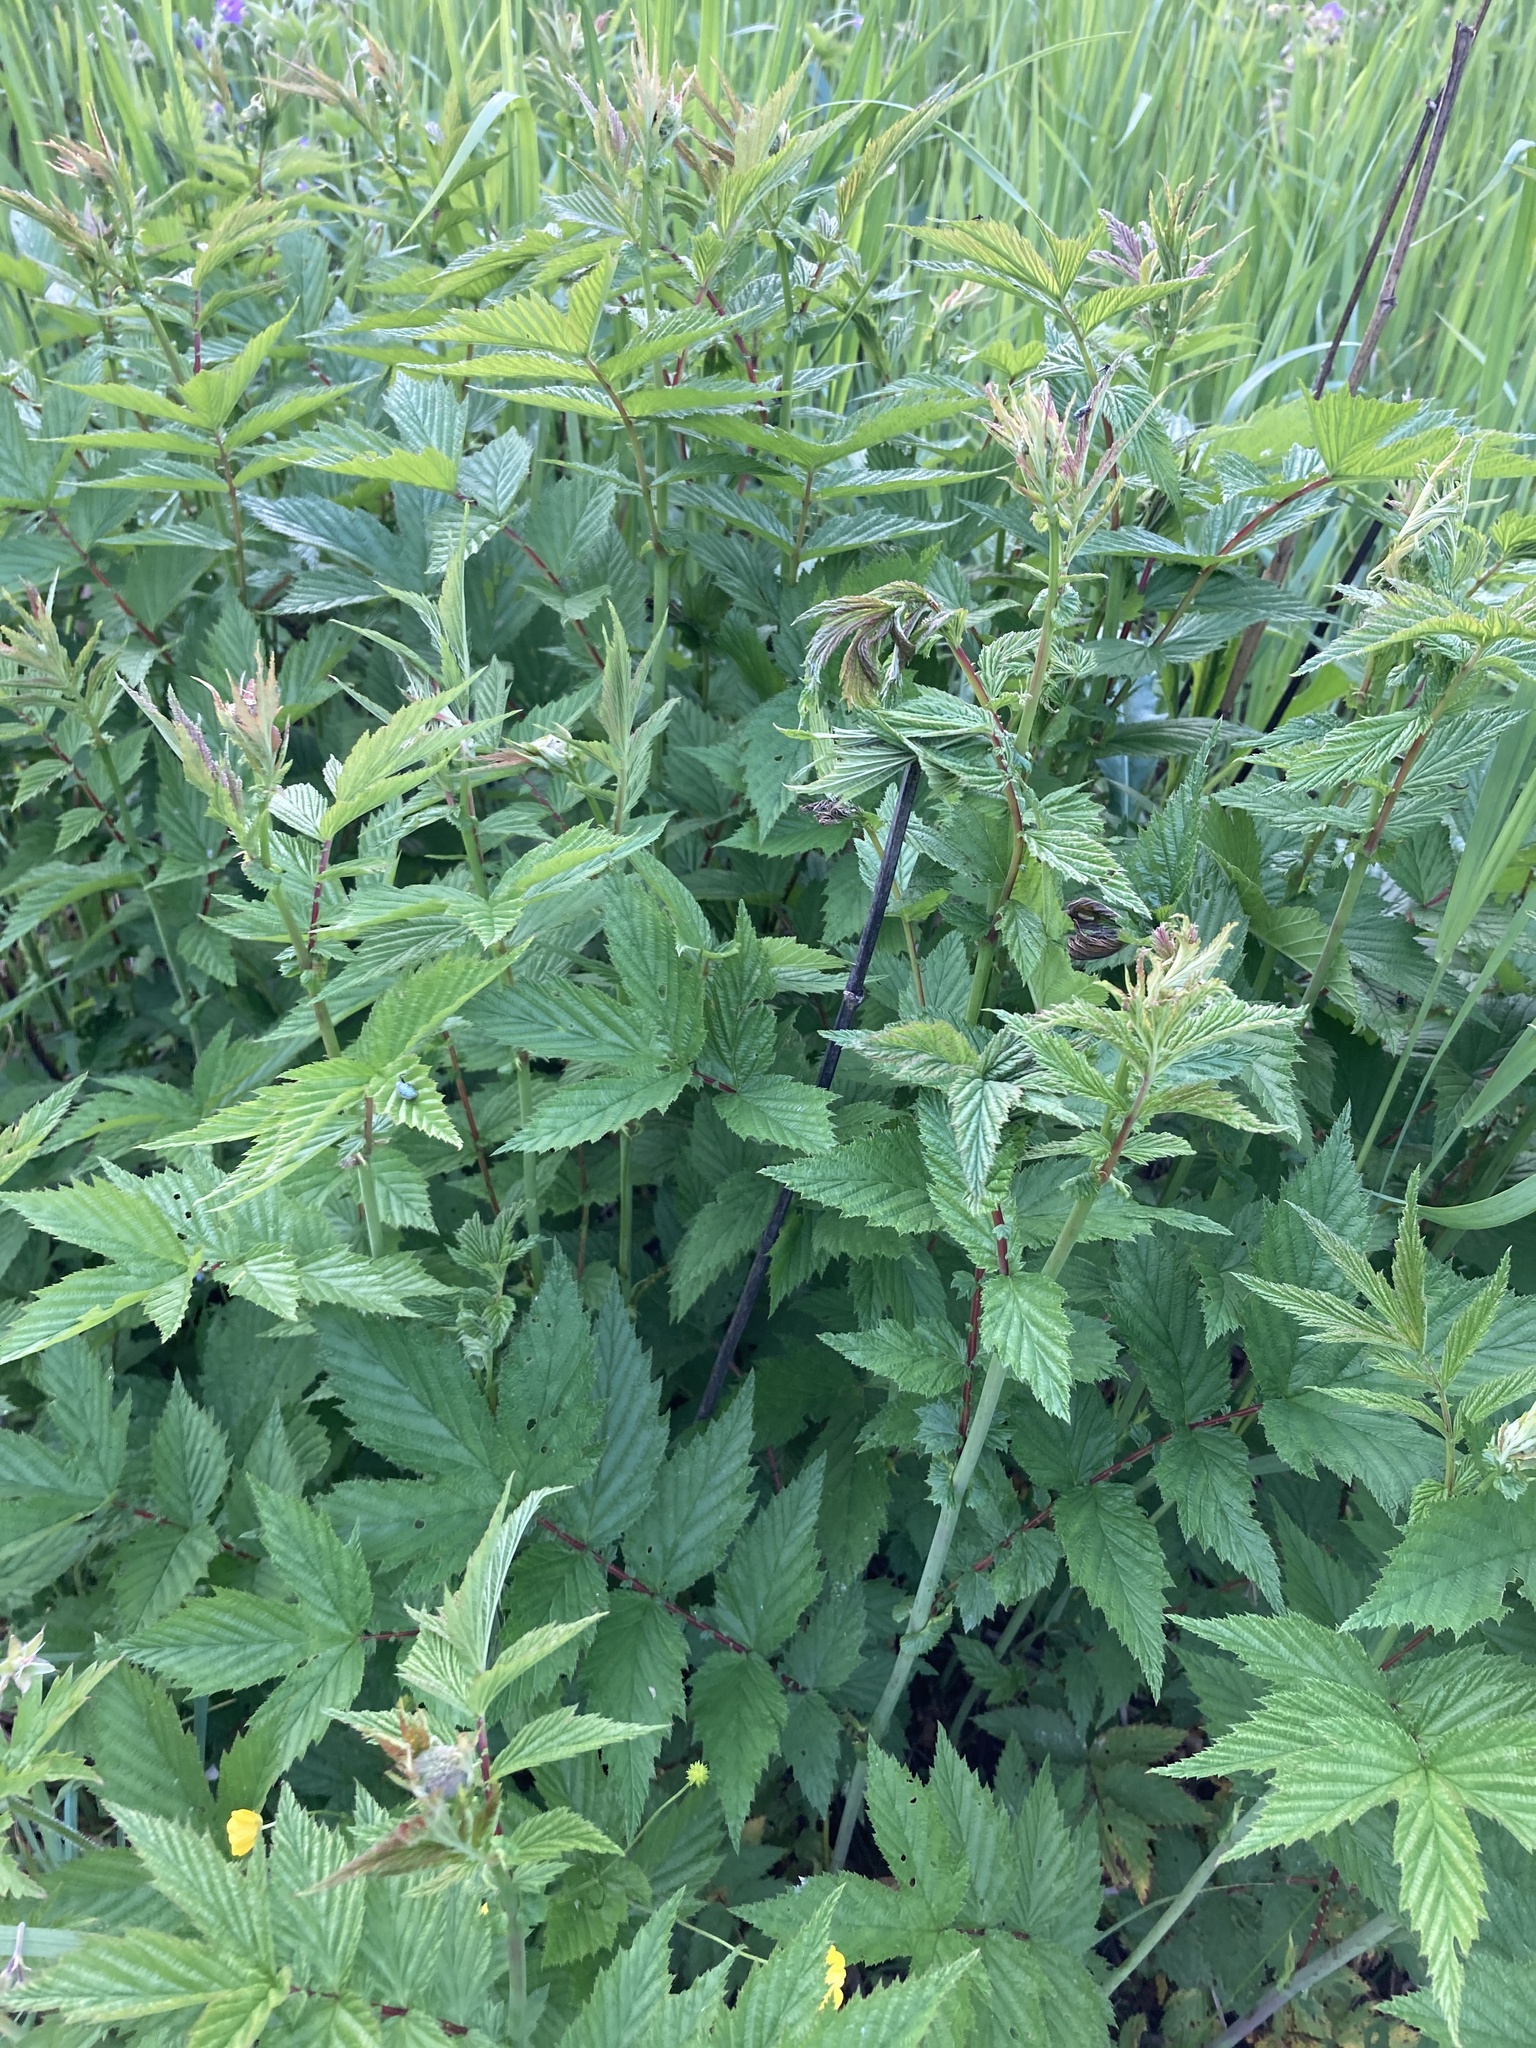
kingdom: Plantae
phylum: Tracheophyta
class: Magnoliopsida
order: Rosales
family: Rosaceae
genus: Filipendula
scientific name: Filipendula ulmaria
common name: Meadowsweet
